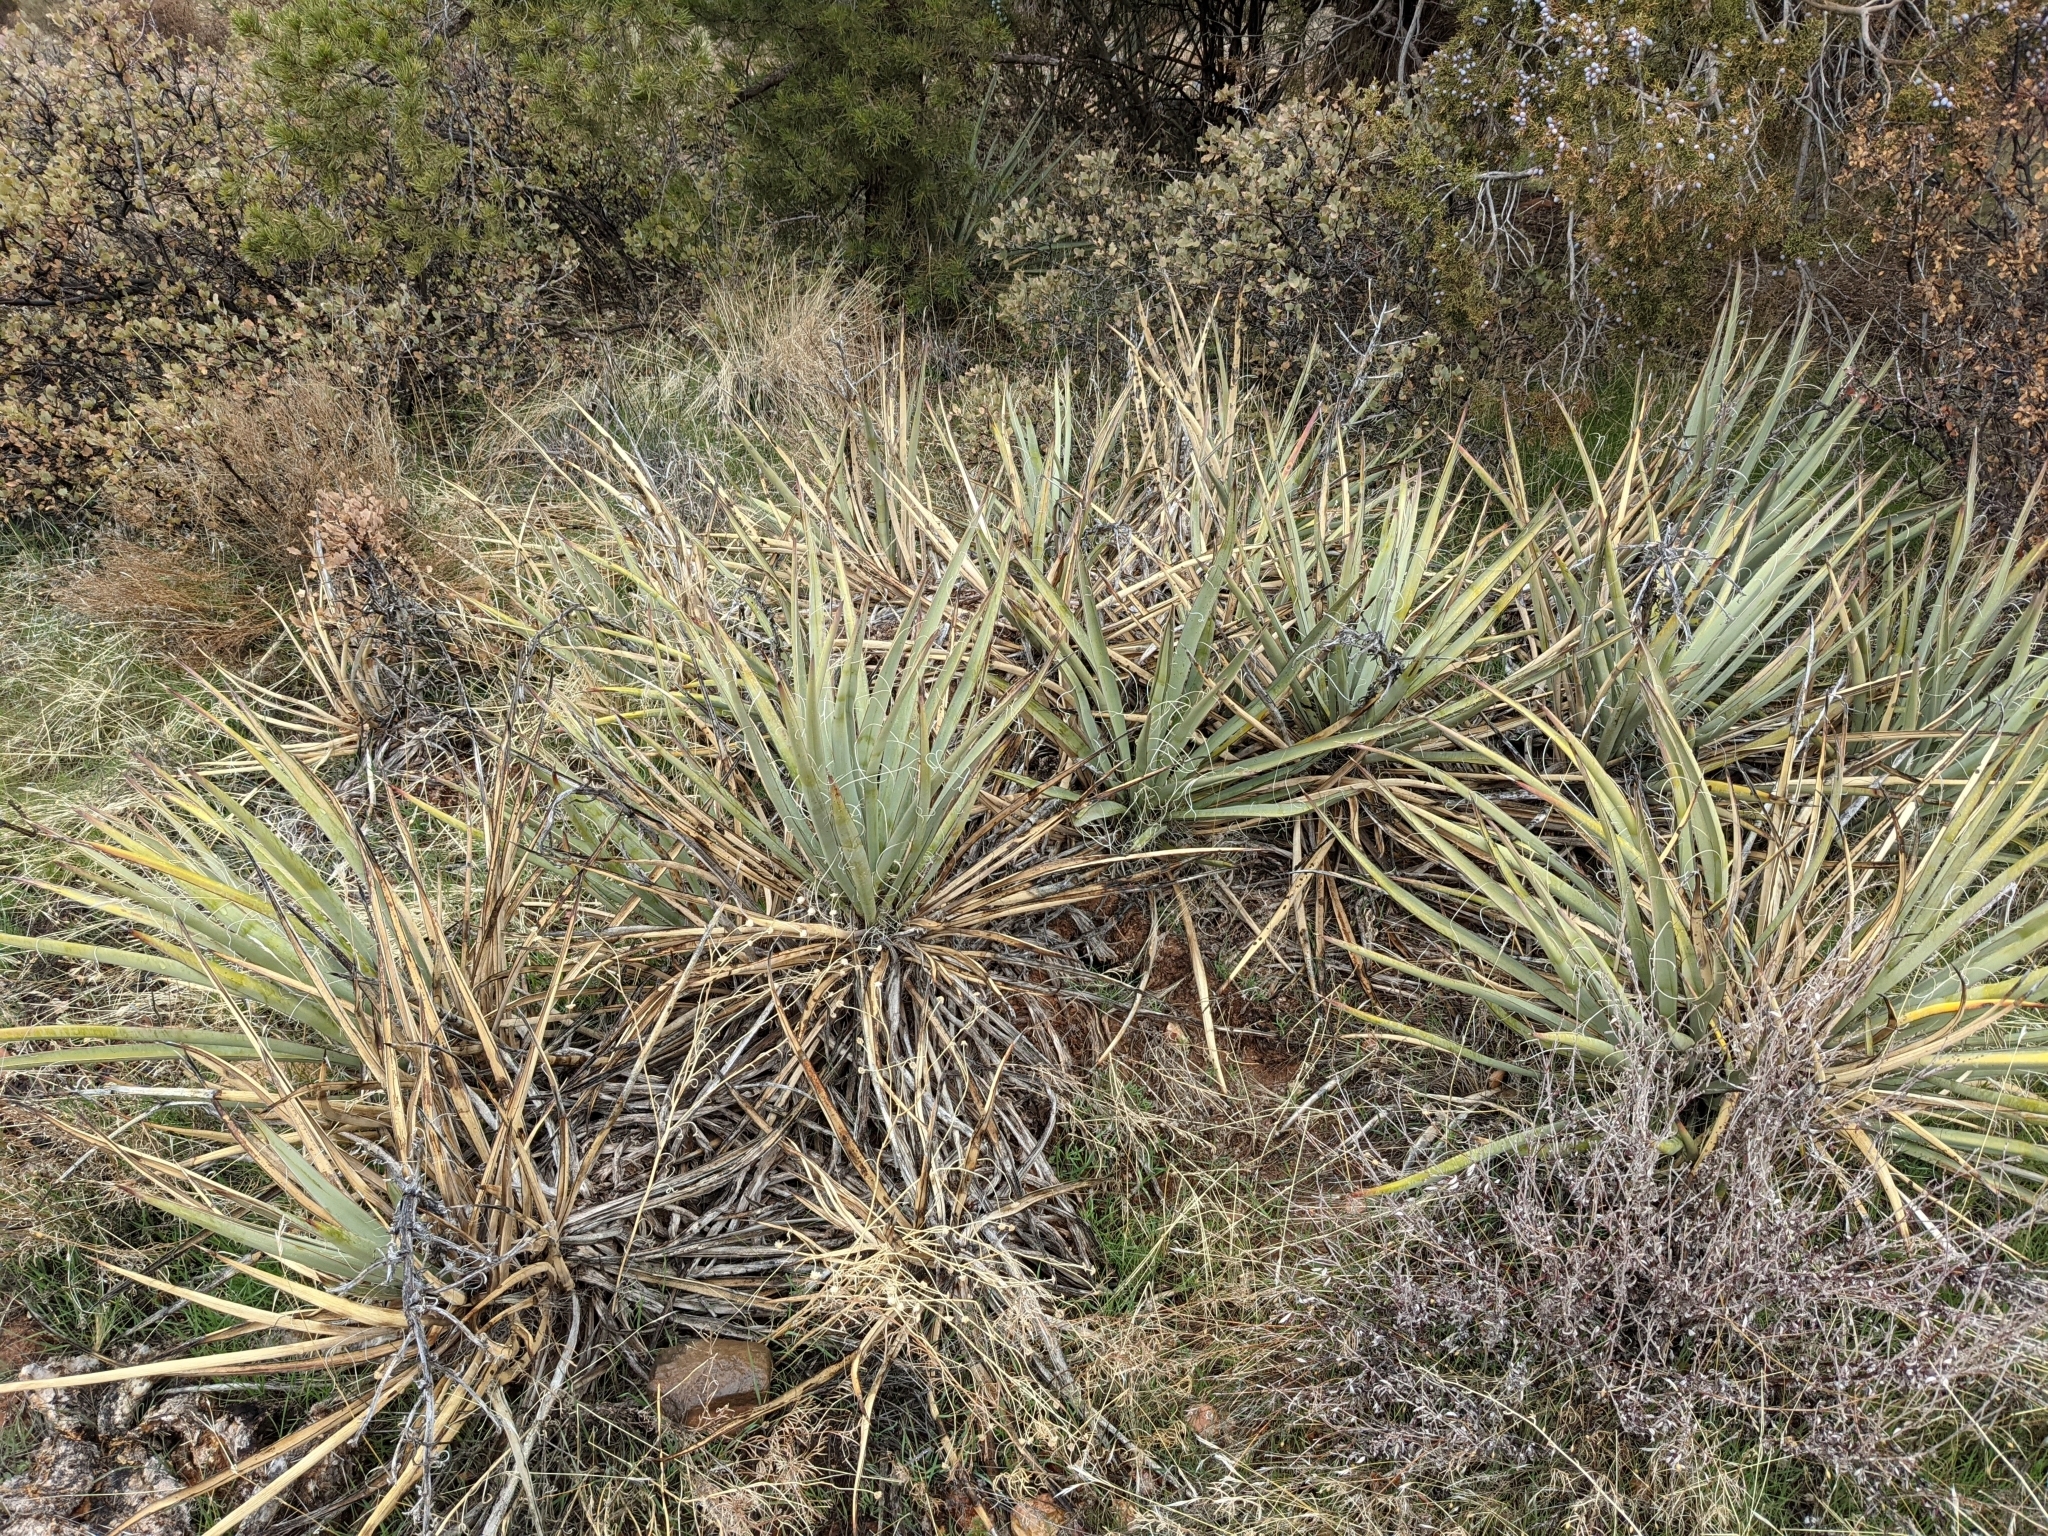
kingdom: Plantae
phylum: Tracheophyta
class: Liliopsida
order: Asparagales
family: Asparagaceae
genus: Yucca
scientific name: Yucca baccata
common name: Banana yucca
